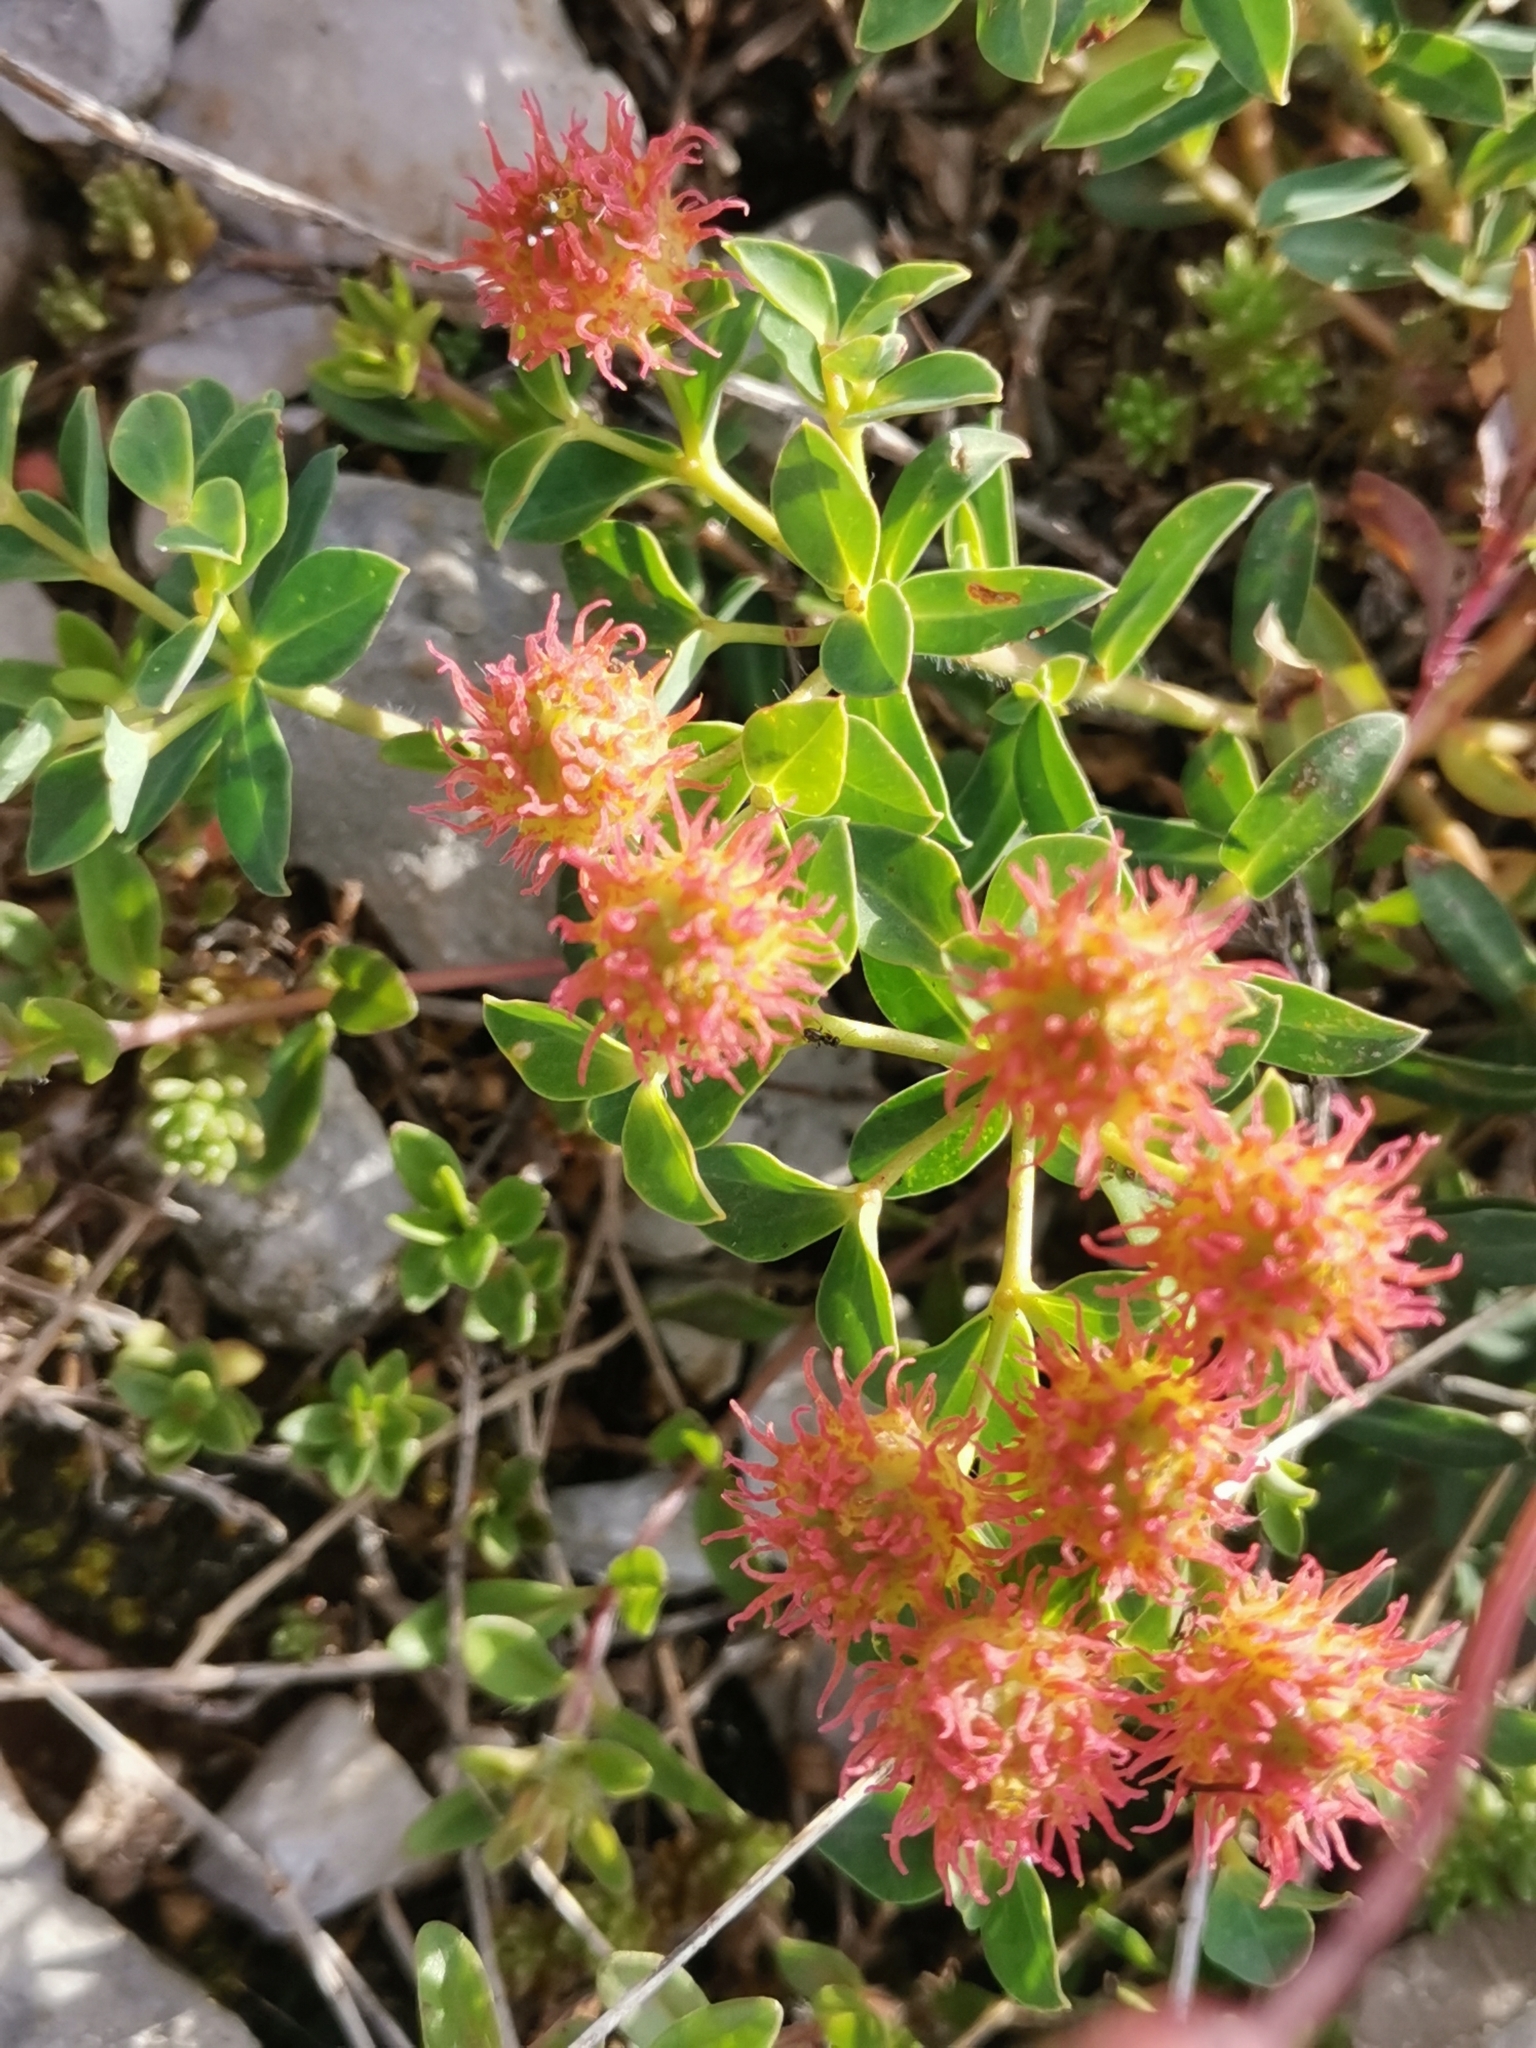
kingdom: Plantae
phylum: Tracheophyta
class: Magnoliopsida
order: Malpighiales
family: Euphorbiaceae
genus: Euphorbia
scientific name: Euphorbia fragifera
